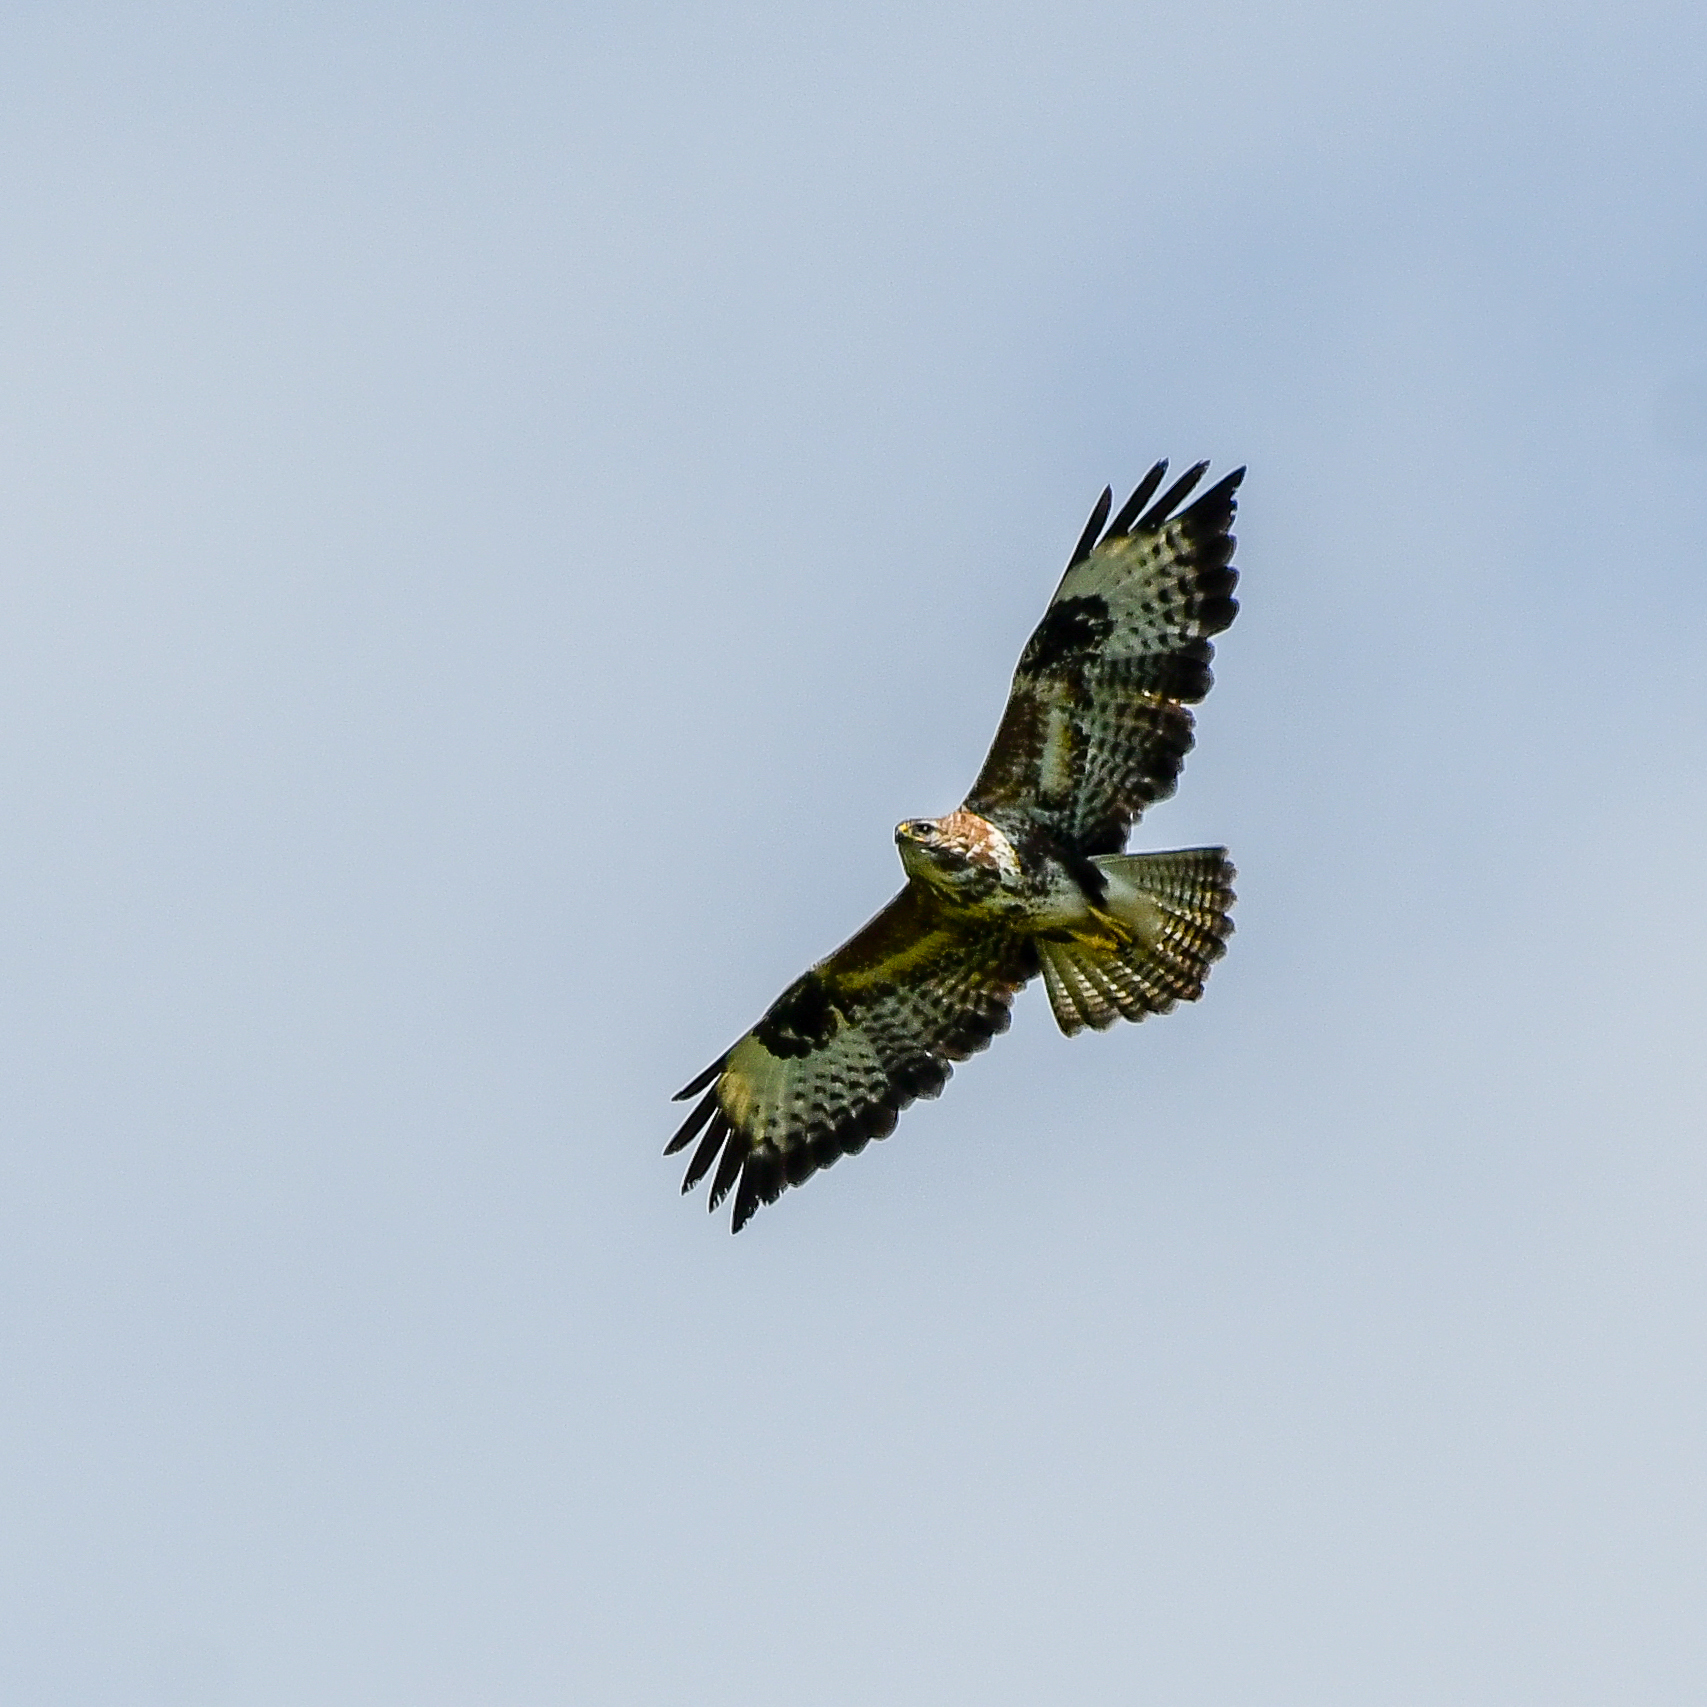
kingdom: Animalia
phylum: Chordata
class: Aves
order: Accipitriformes
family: Accipitridae
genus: Buteo
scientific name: Buteo buteo
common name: Common buzzard
